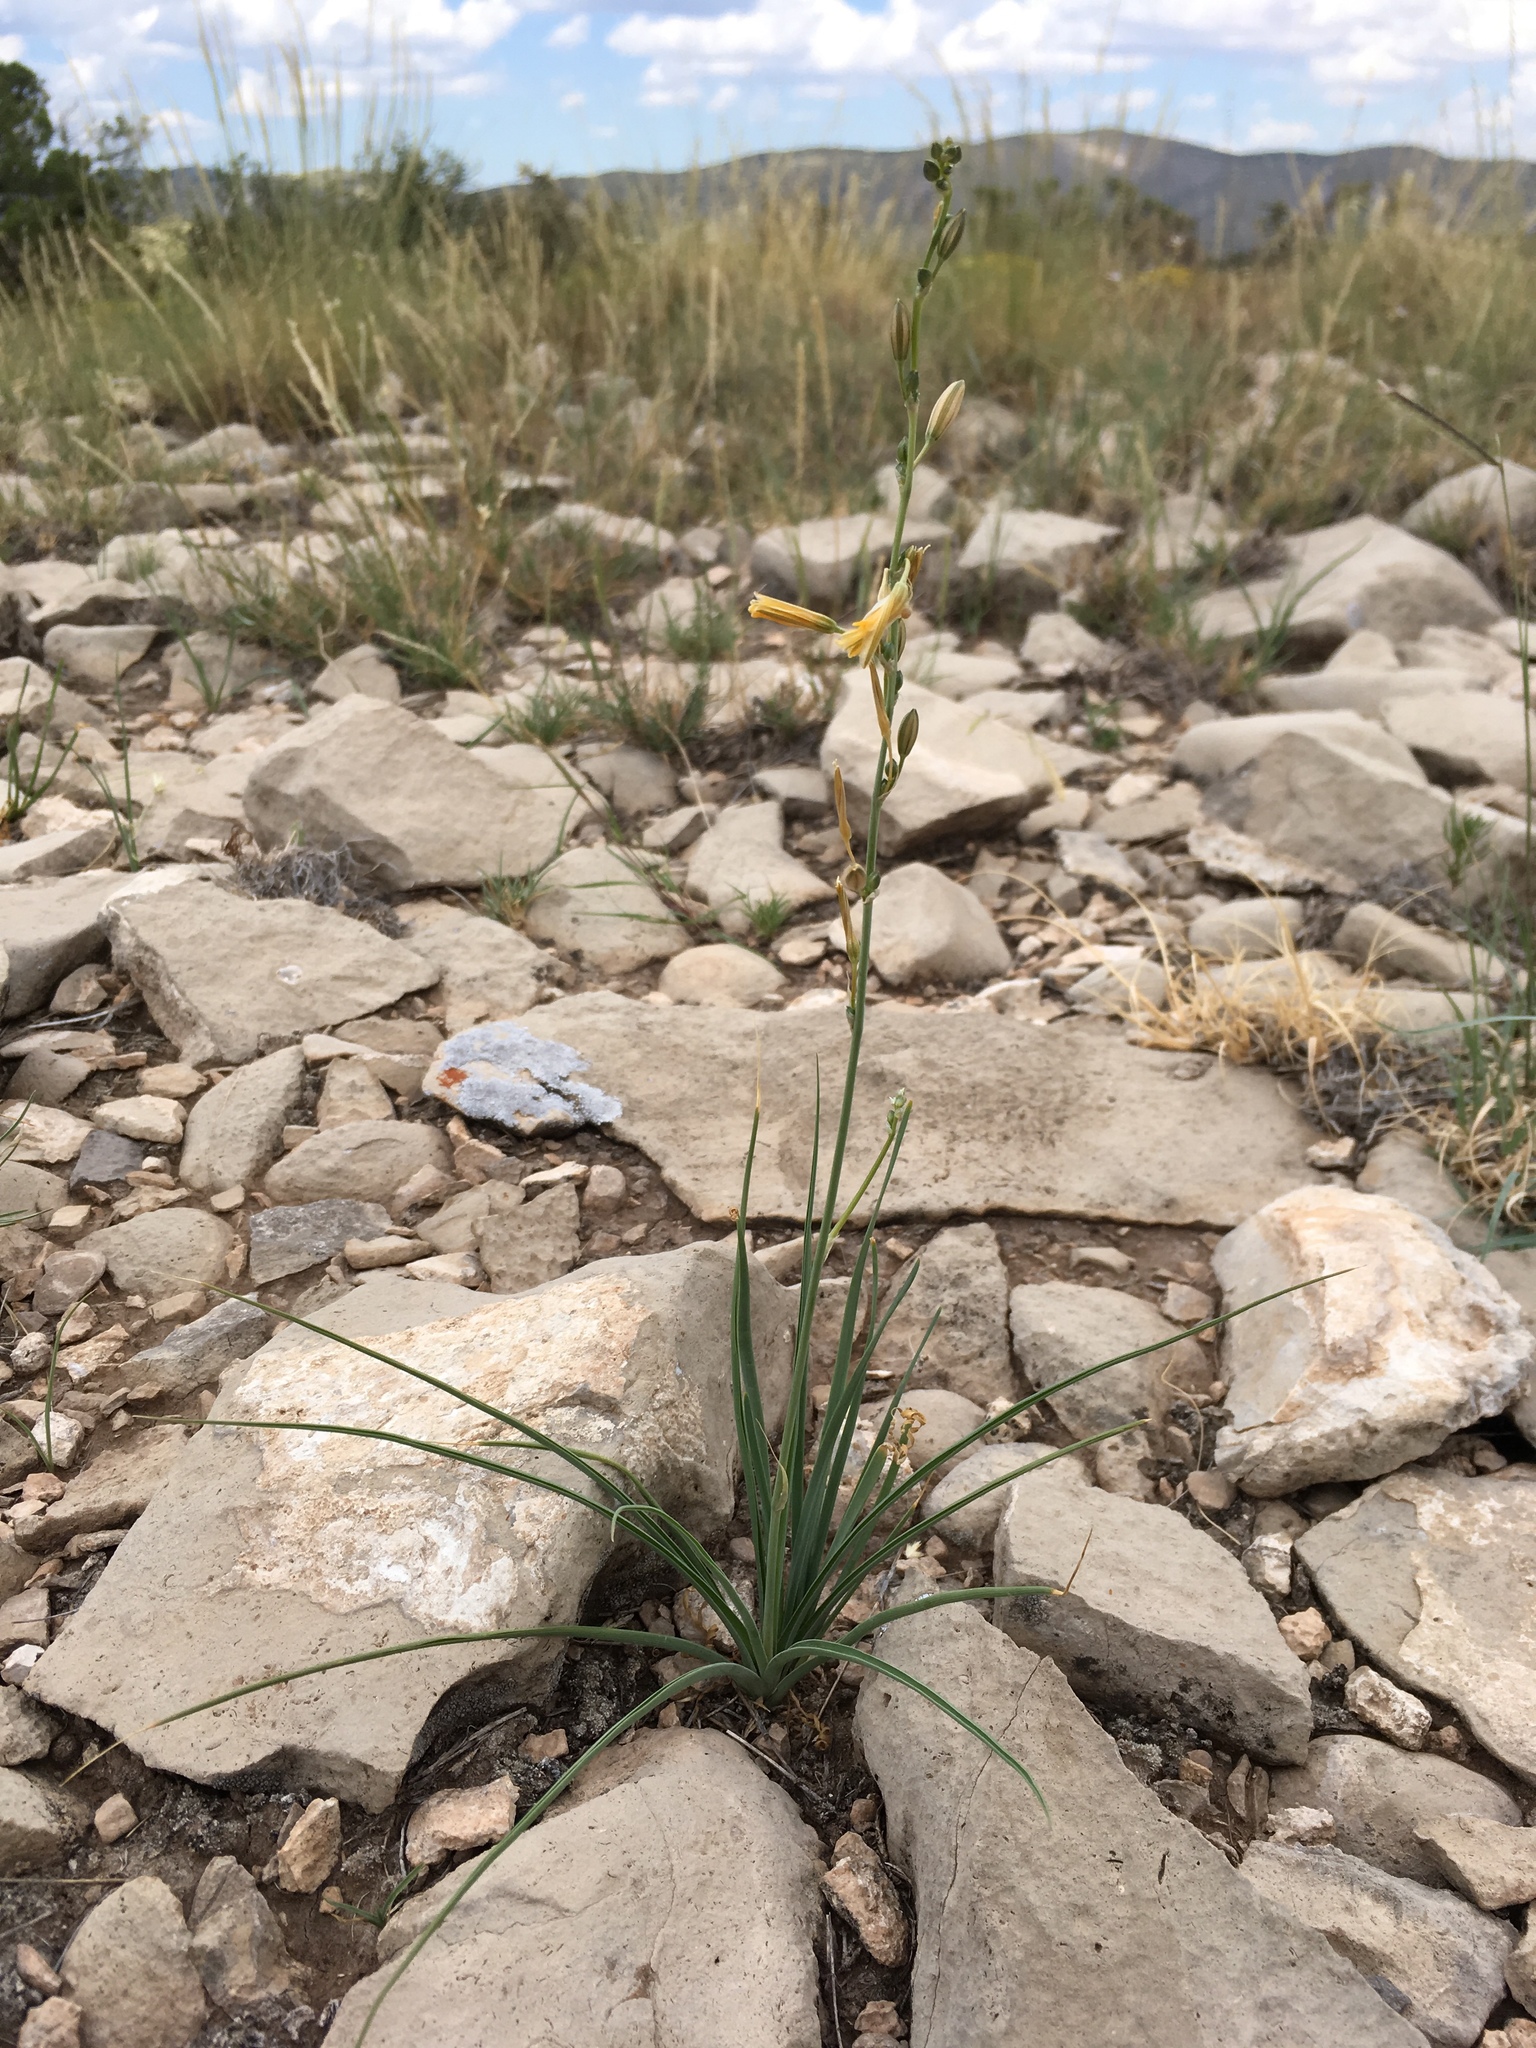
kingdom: Plantae
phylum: Tracheophyta
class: Liliopsida
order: Asparagales
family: Asparagaceae
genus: Echeandia
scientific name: Echeandia flavescens
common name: Amberlily
